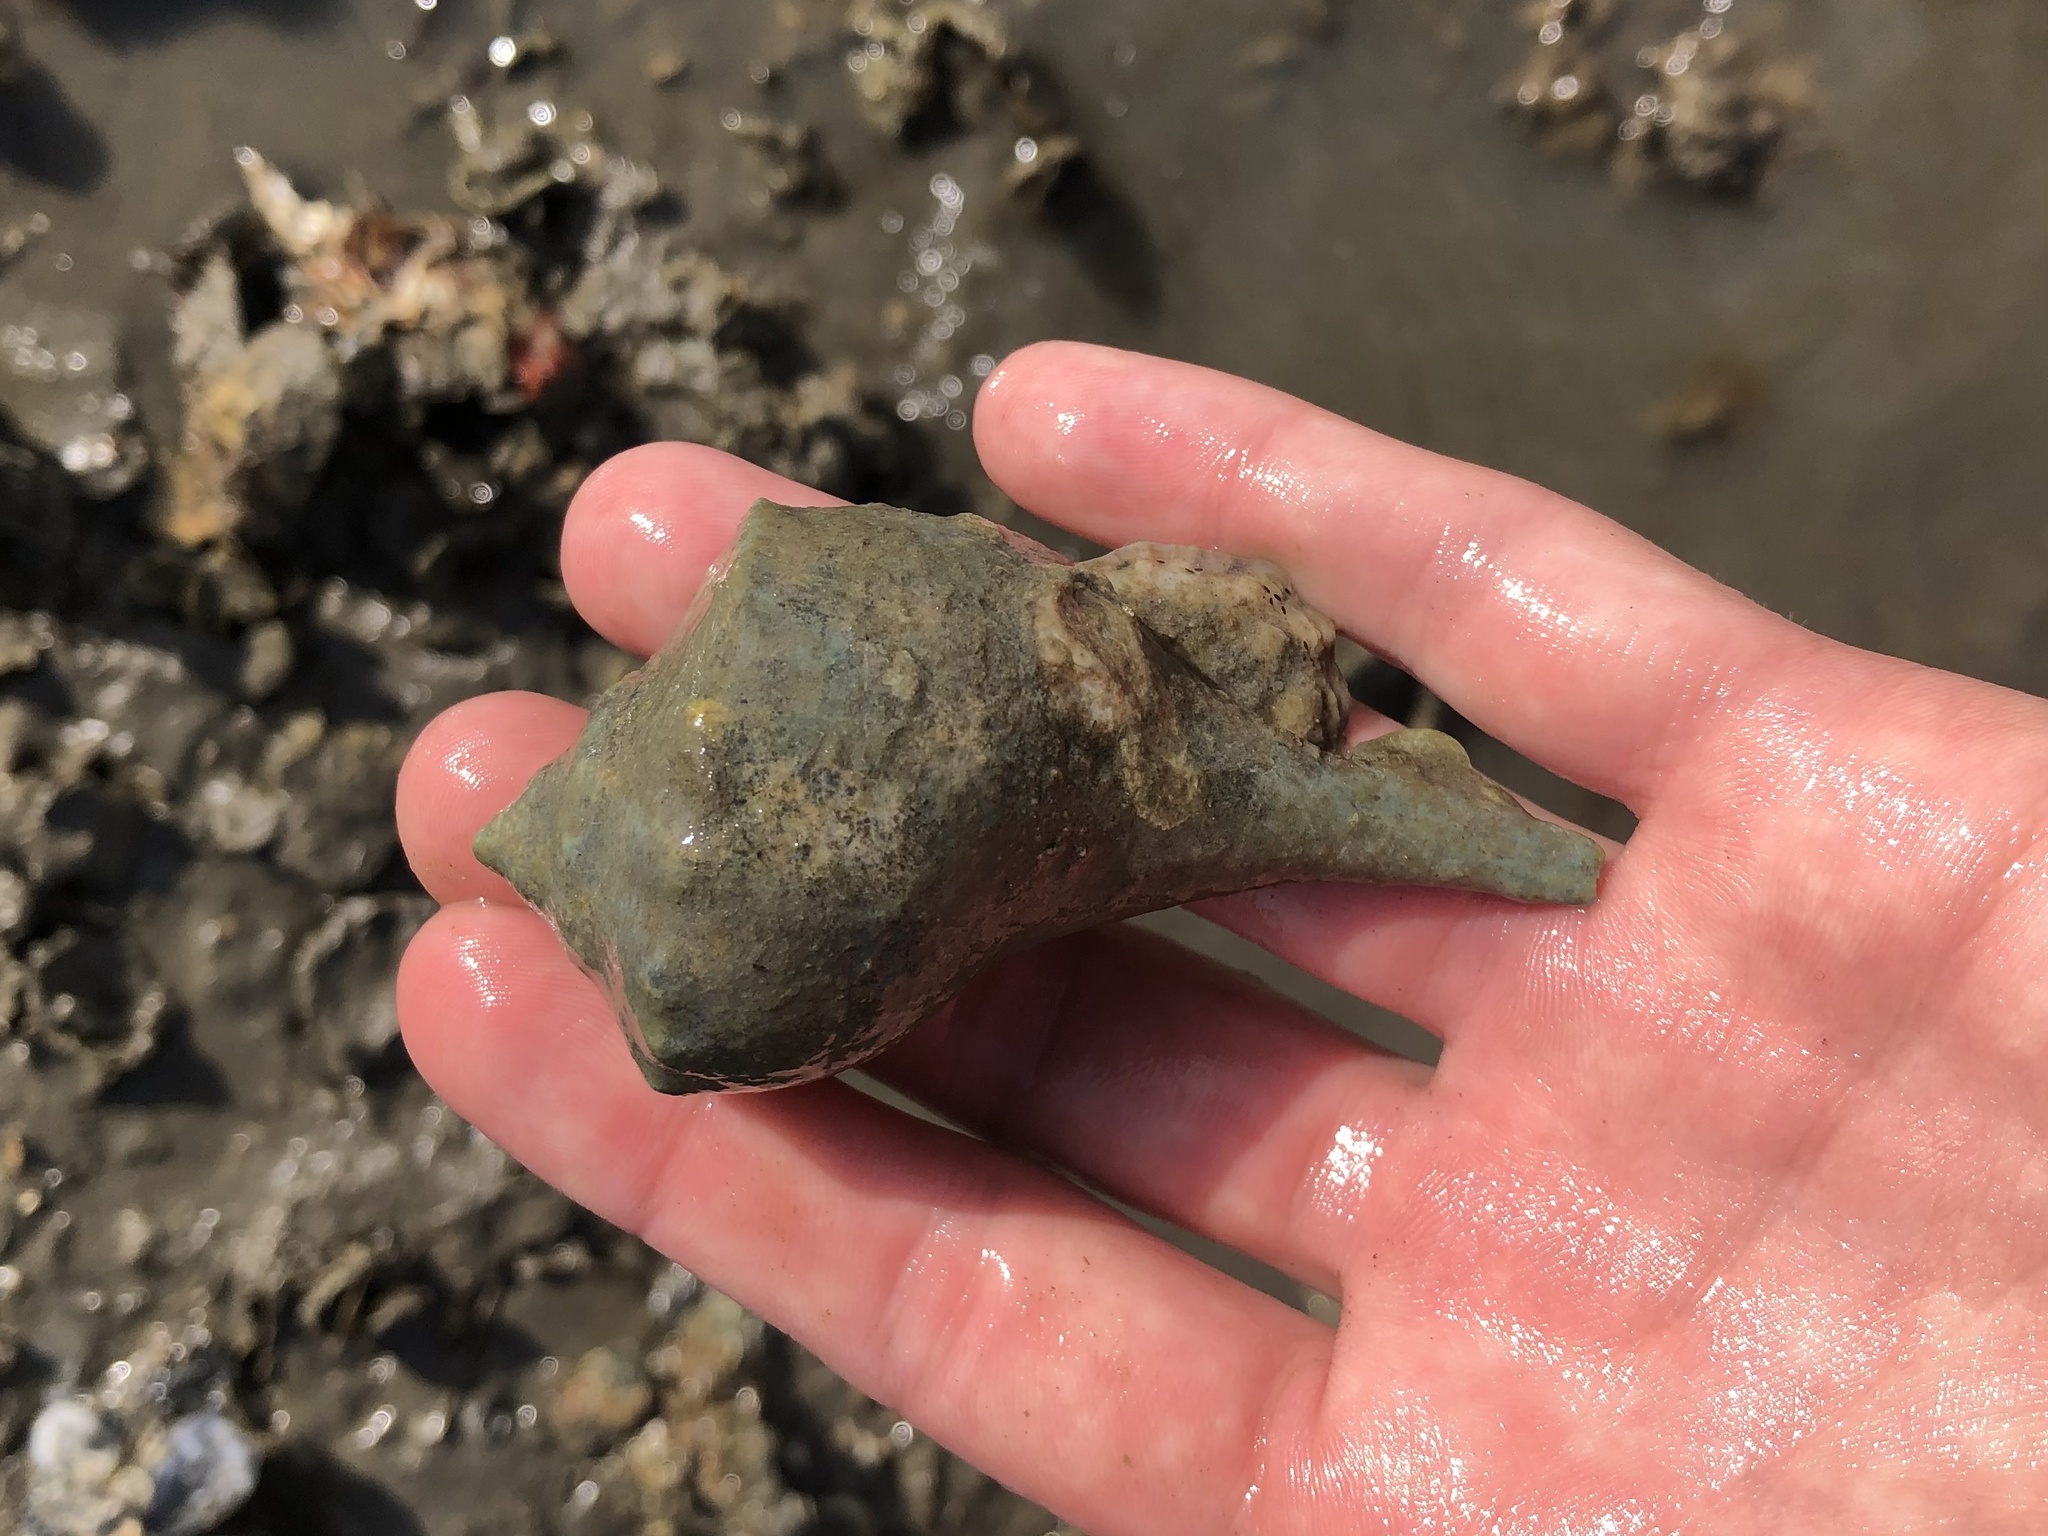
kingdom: Animalia
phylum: Mollusca
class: Gastropoda
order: Neogastropoda
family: Busyconidae
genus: Sinistrofulgur
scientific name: Sinistrofulgur sinistrum
